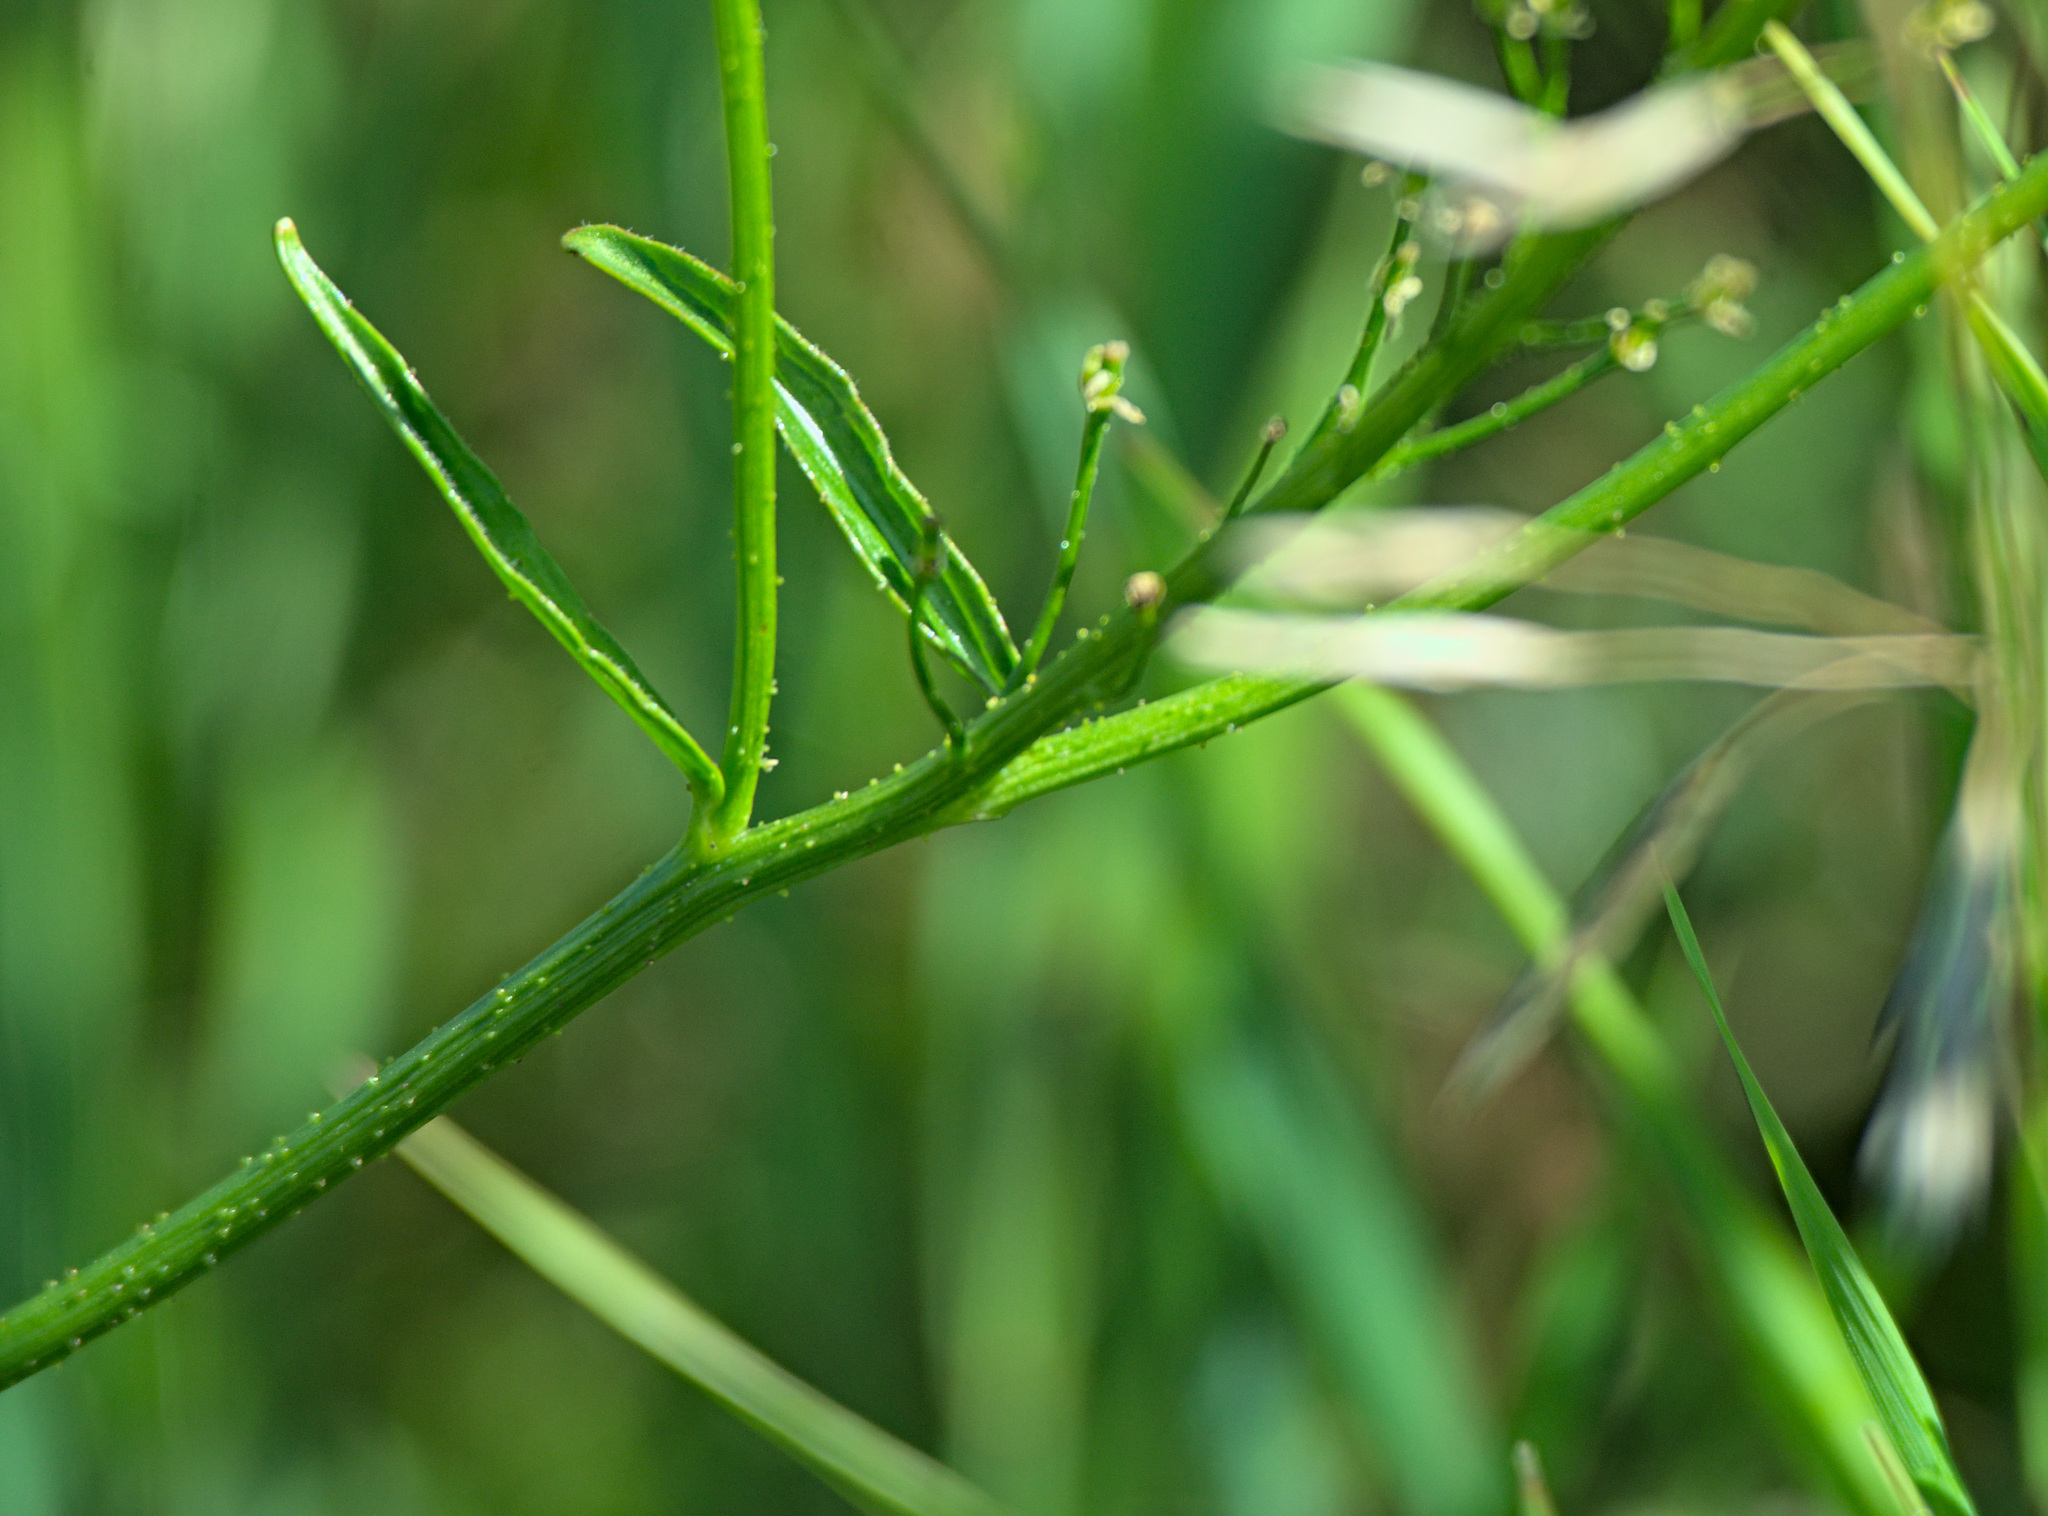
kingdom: Plantae
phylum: Tracheophyta
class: Magnoliopsida
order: Brassicales
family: Brassicaceae
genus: Bunias
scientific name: Bunias orientalis
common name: Warty-cabbage
